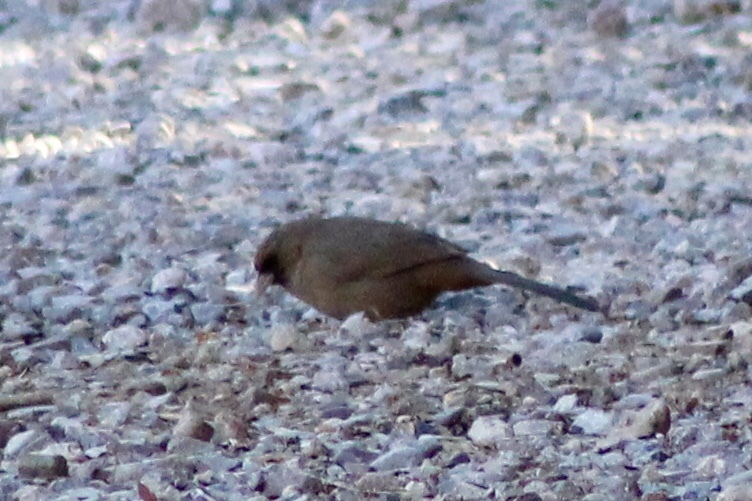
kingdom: Animalia
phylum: Chordata
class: Aves
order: Passeriformes
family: Passerellidae
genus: Melozone
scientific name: Melozone aberti
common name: Abert's towhee
